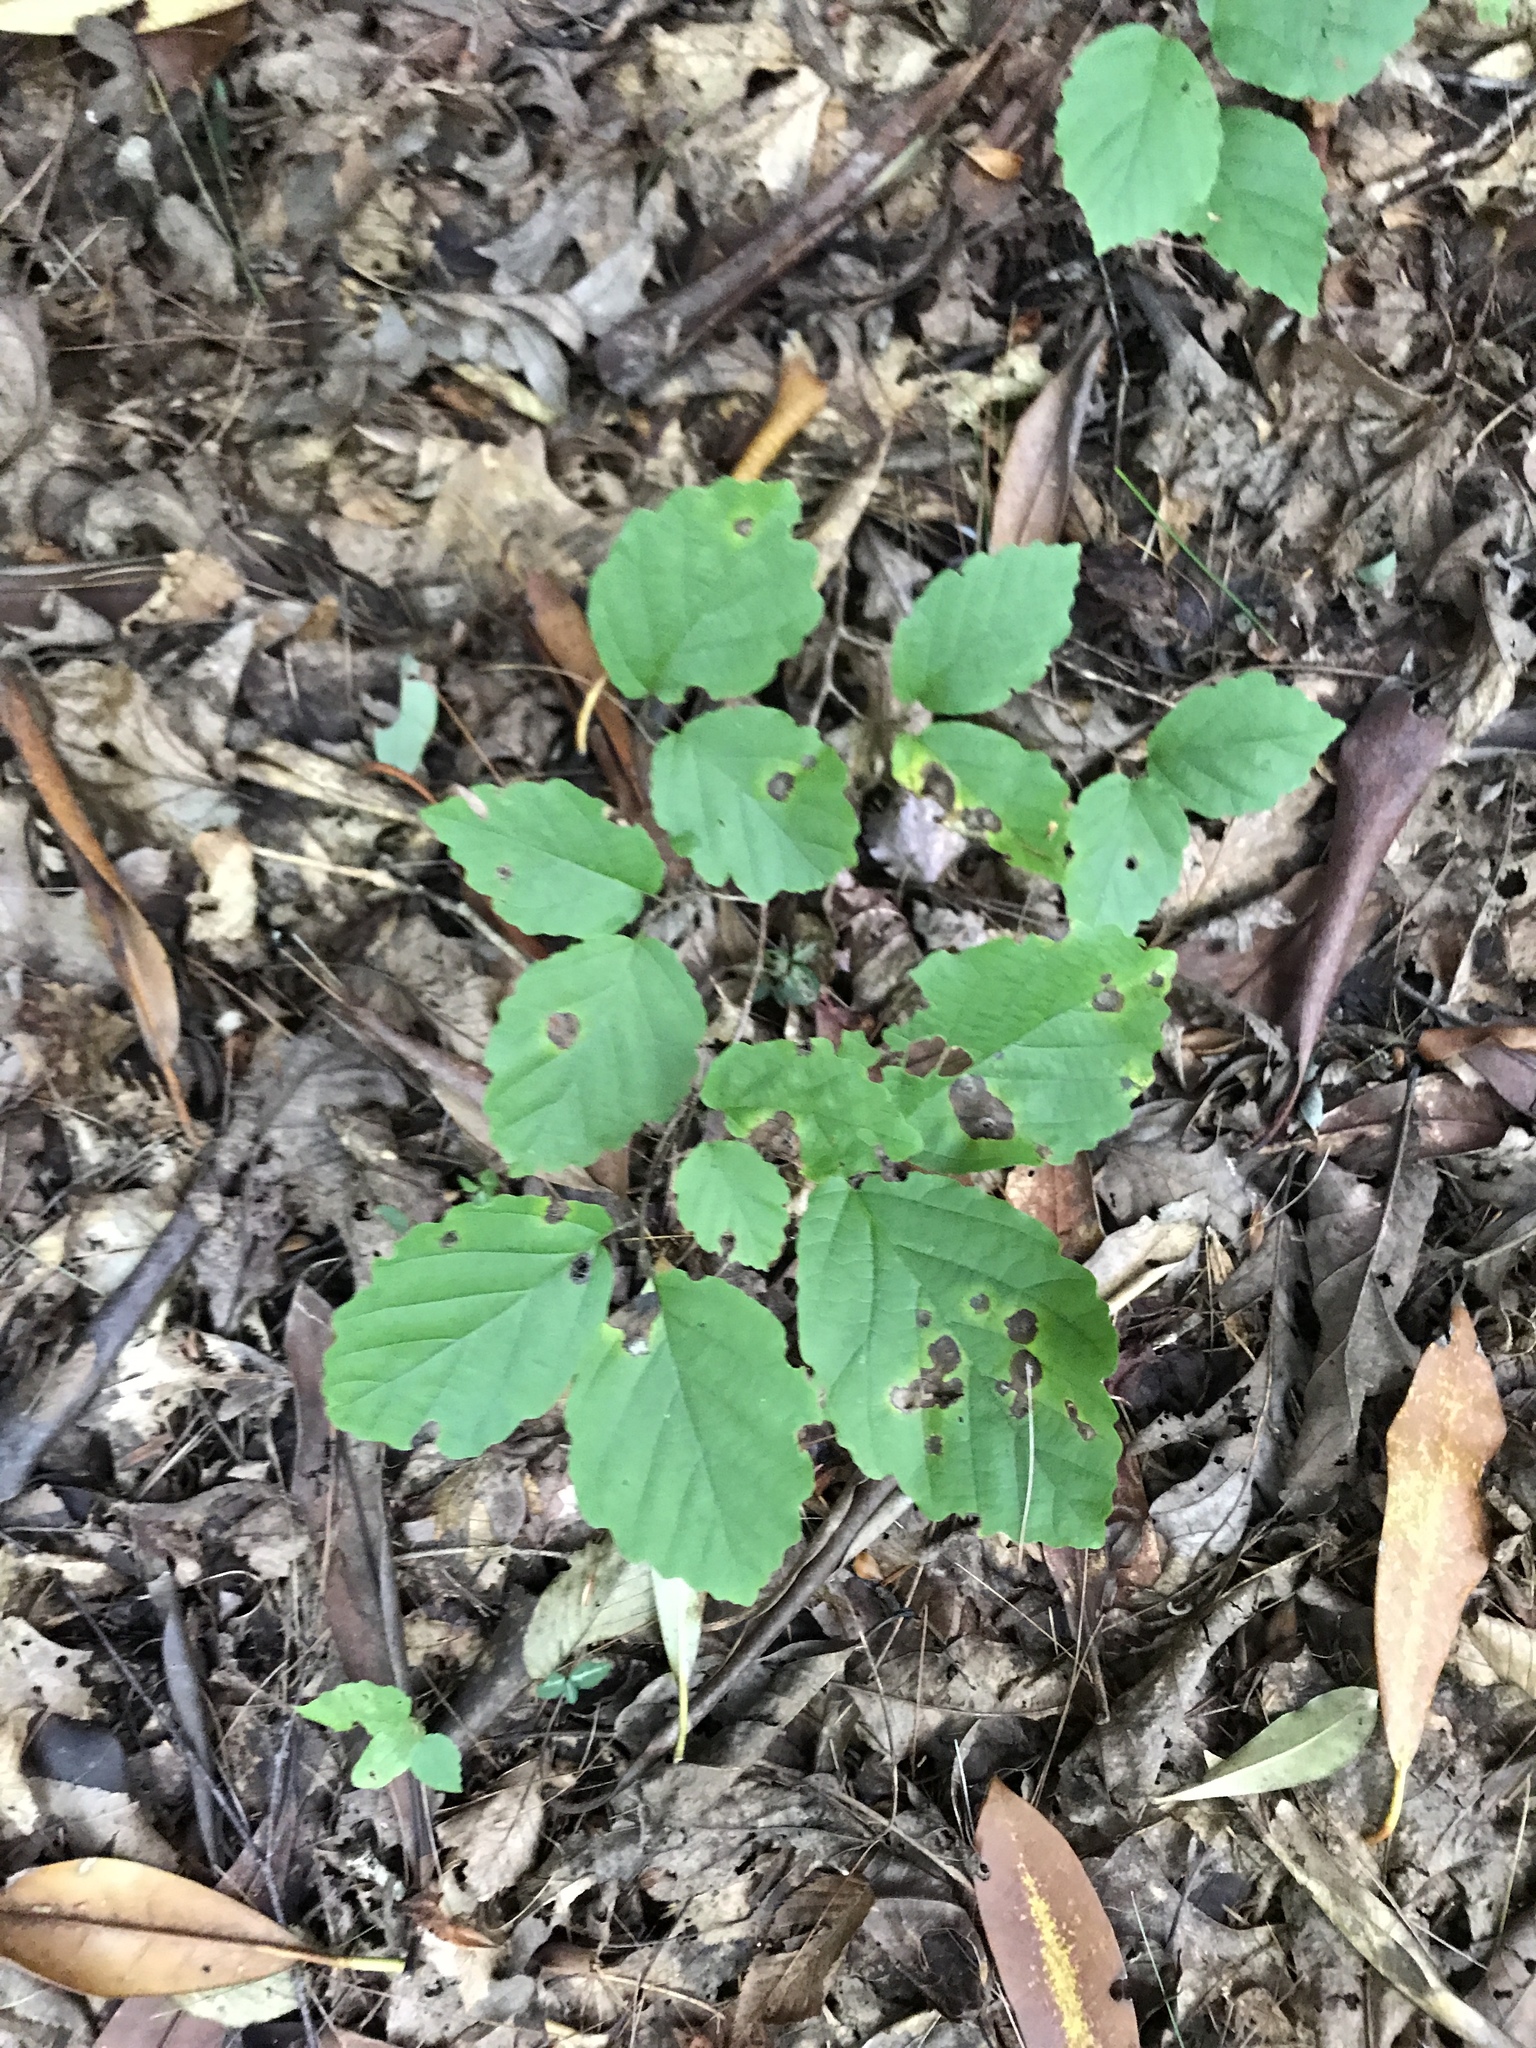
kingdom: Plantae
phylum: Tracheophyta
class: Magnoliopsida
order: Saxifragales
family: Hamamelidaceae
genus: Hamamelis
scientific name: Hamamelis virginiana
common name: Witch-hazel
